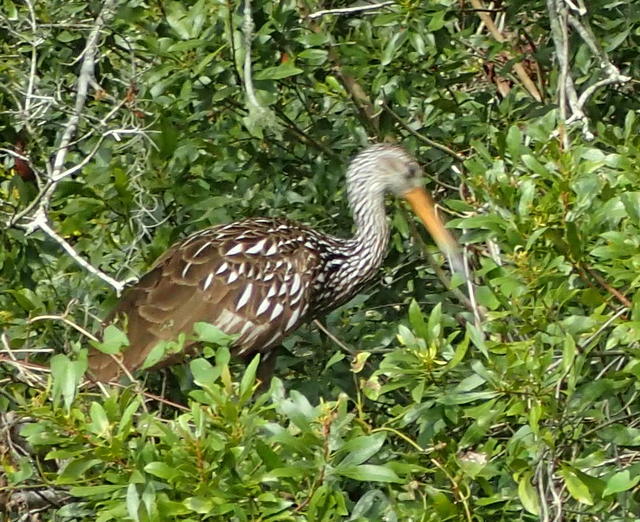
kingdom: Animalia
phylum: Chordata
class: Aves
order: Gruiformes
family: Aramidae
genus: Aramus
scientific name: Aramus guarauna
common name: Limpkin
